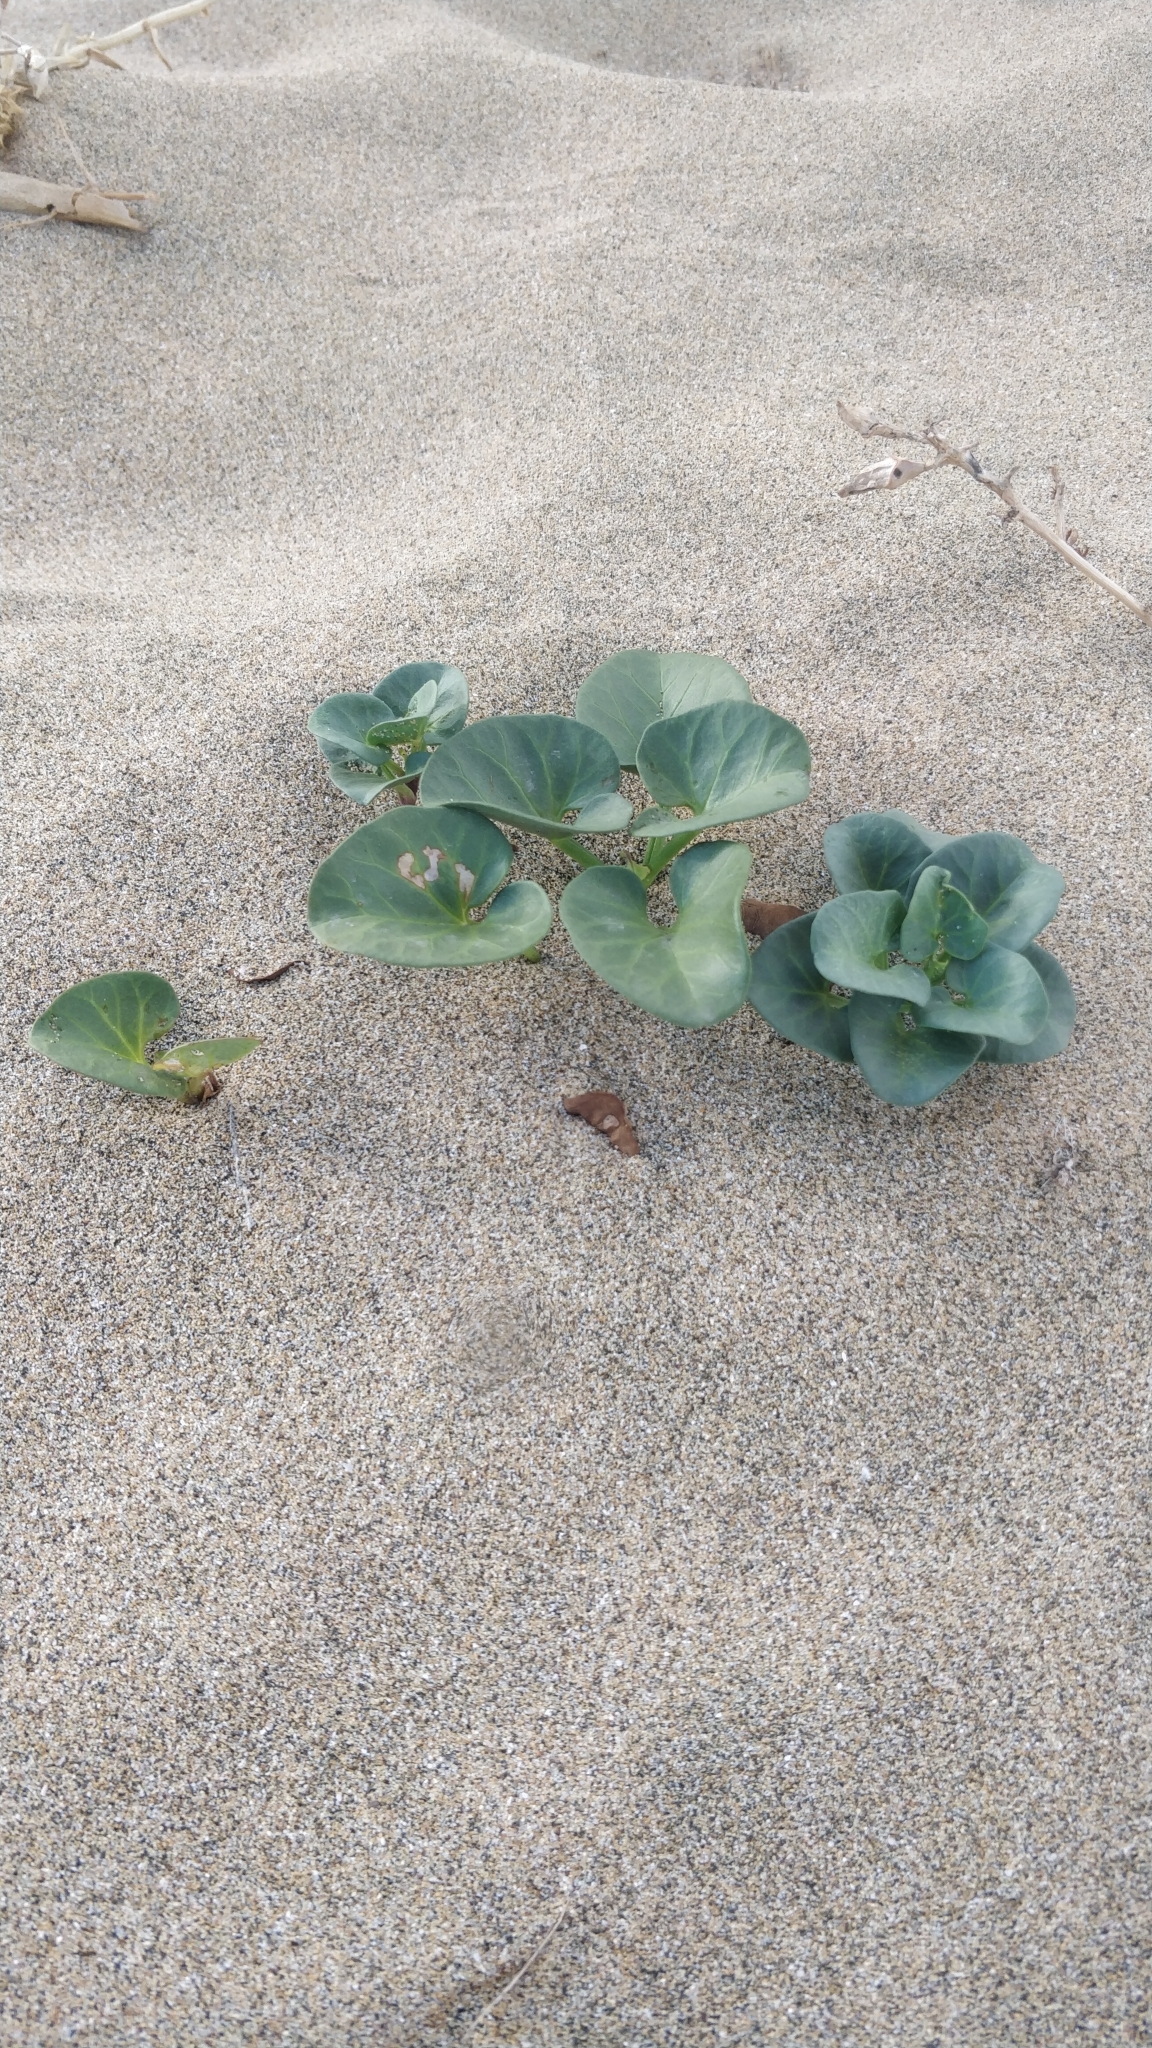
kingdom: Plantae
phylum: Tracheophyta
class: Magnoliopsida
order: Solanales
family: Convolvulaceae
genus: Calystegia
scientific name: Calystegia soldanella
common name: Sea bindweed
